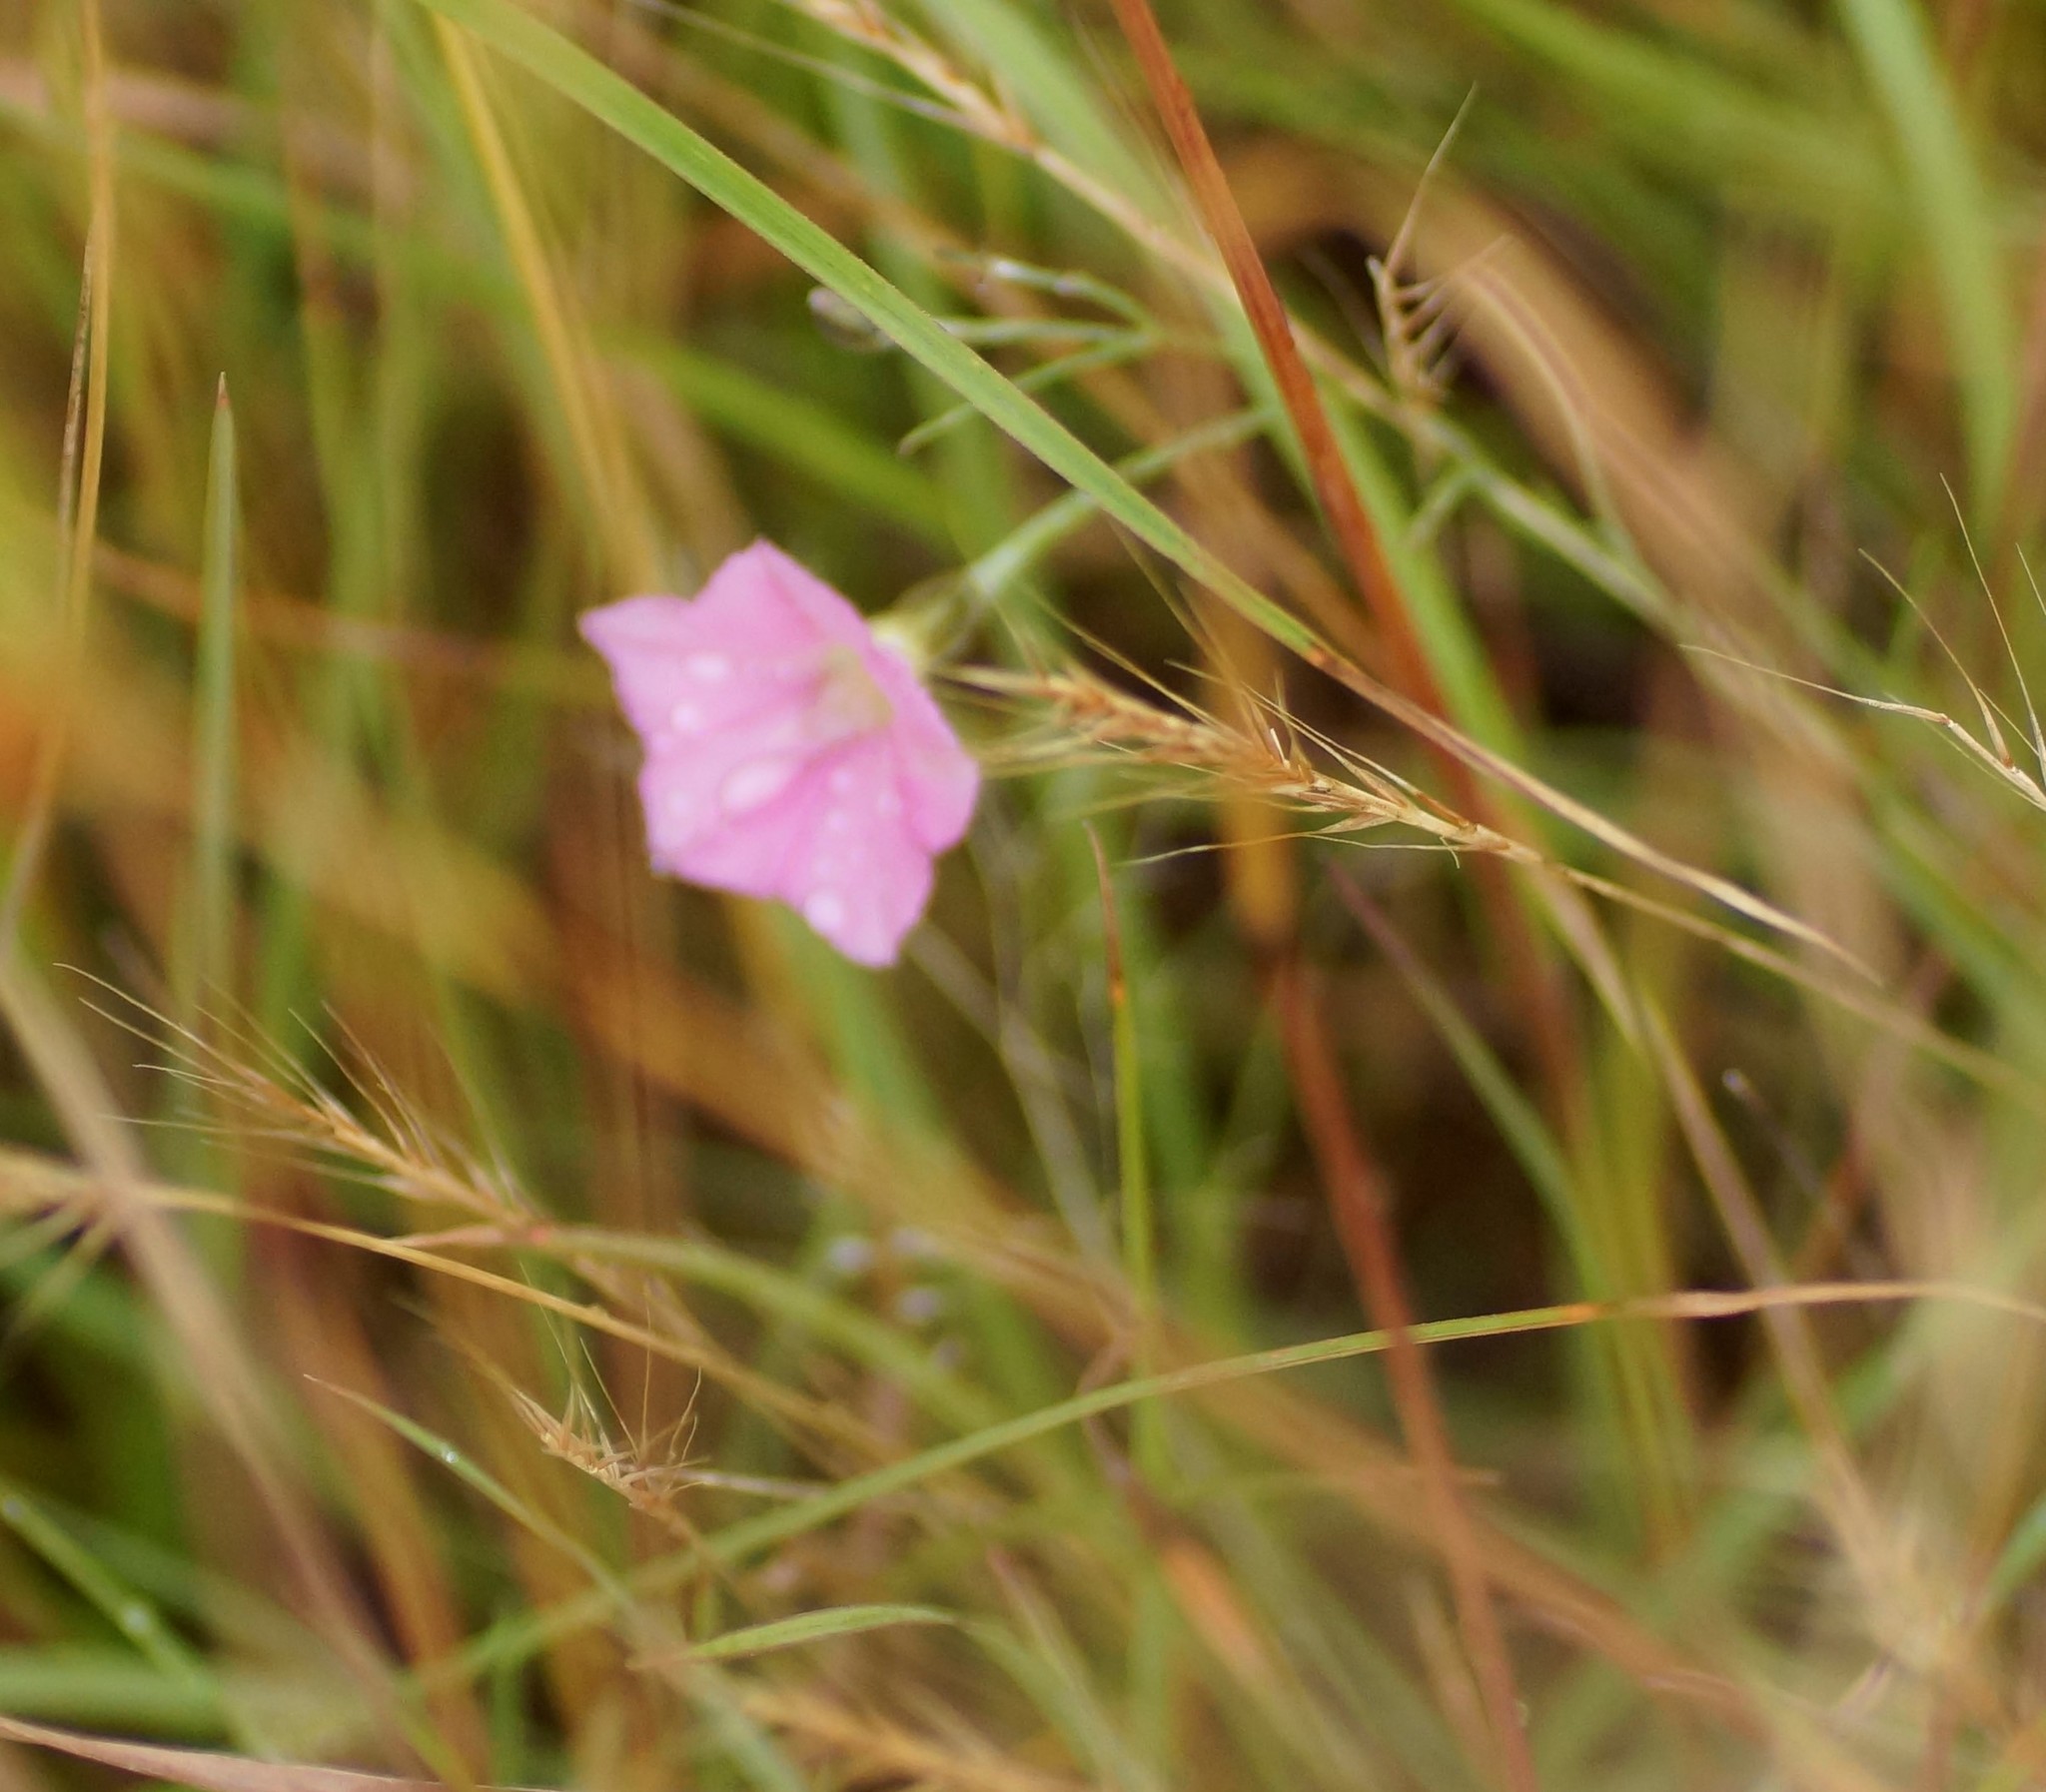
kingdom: Plantae
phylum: Tracheophyta
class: Magnoliopsida
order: Solanales
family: Convolvulaceae
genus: Convolvulus
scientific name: Convolvulus angustissimus
